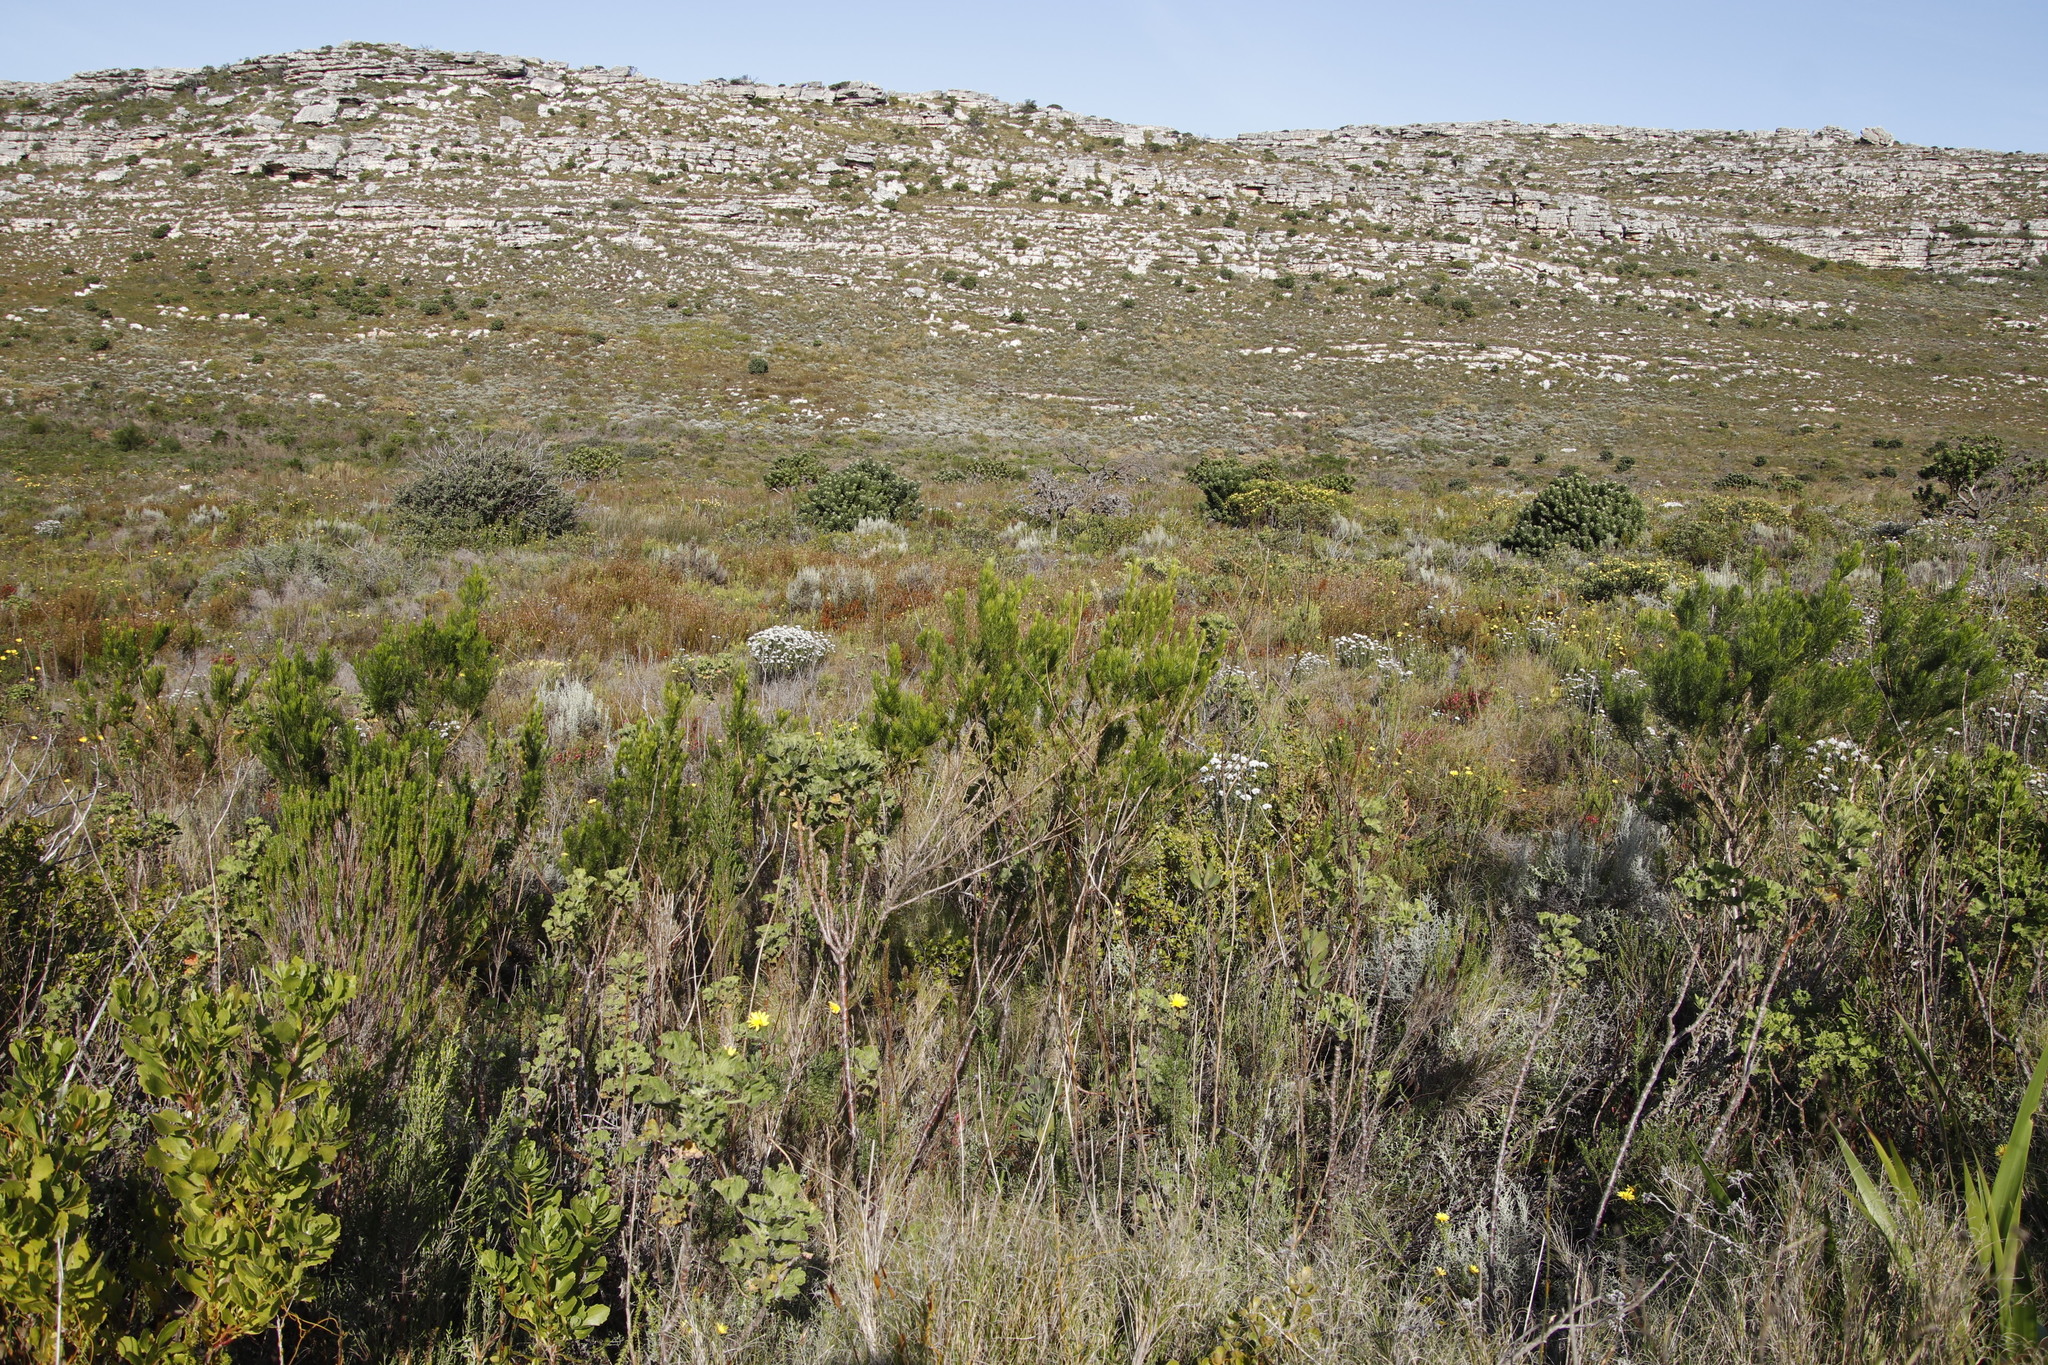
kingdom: Plantae
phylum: Tracheophyta
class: Magnoliopsida
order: Fabales
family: Fabaceae
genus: Psoralea
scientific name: Psoralea pinnata
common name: African scurfpea
